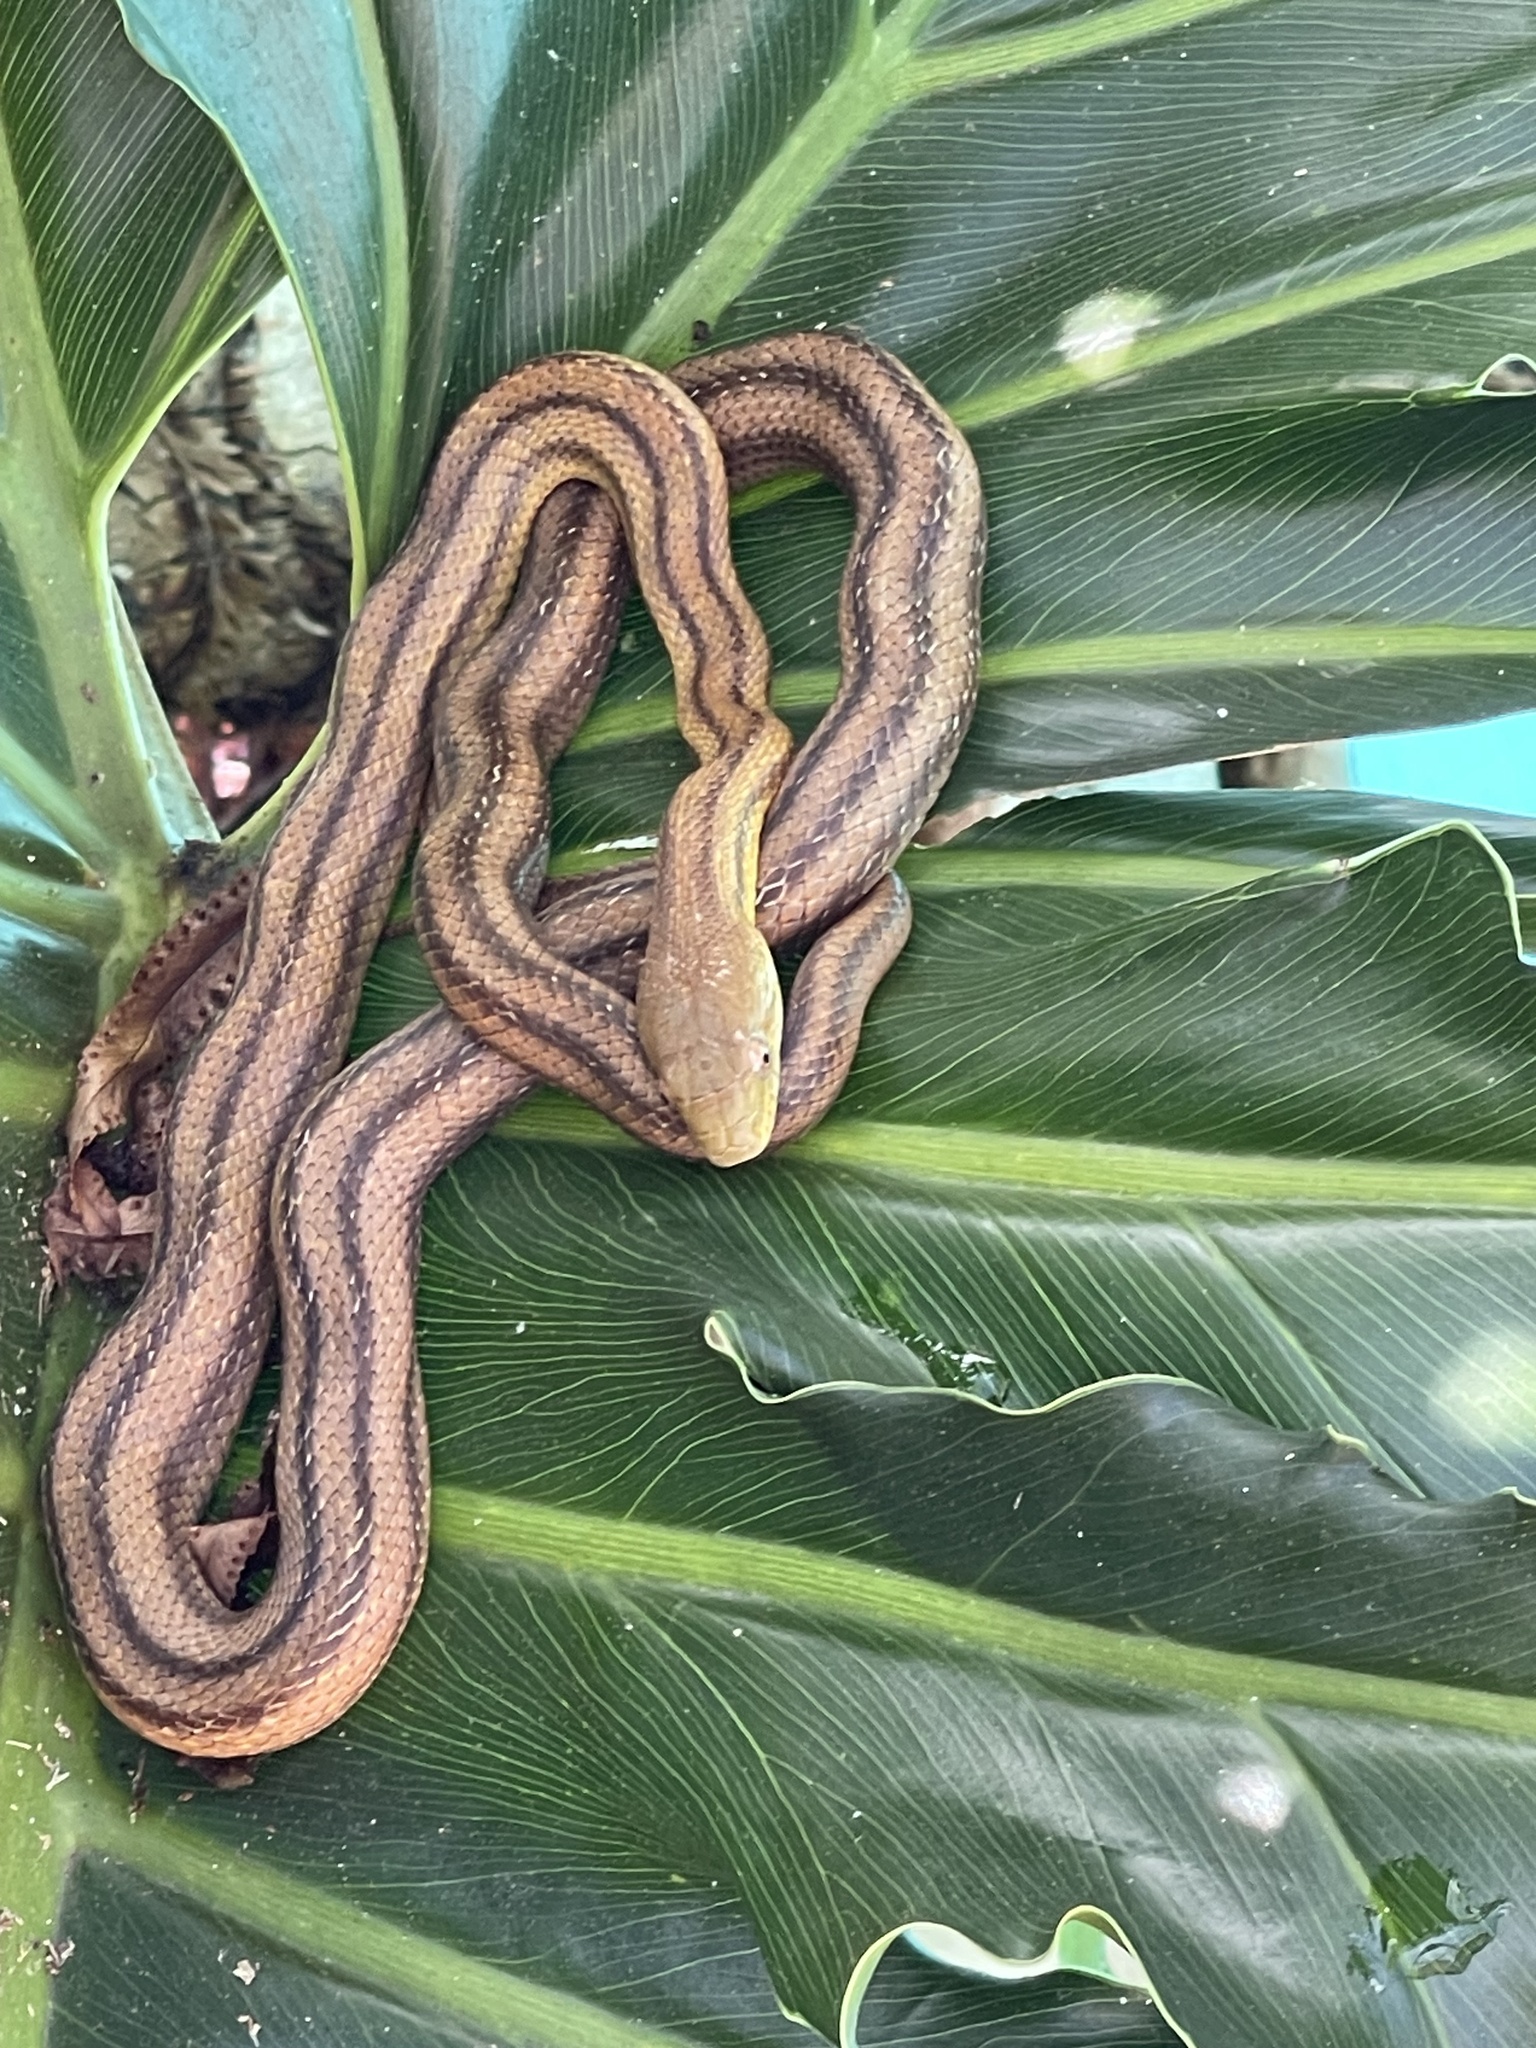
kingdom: Animalia
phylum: Chordata
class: Squamata
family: Colubridae
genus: Pantherophis
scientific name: Pantherophis alleghaniensis
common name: Eastern rat snake
